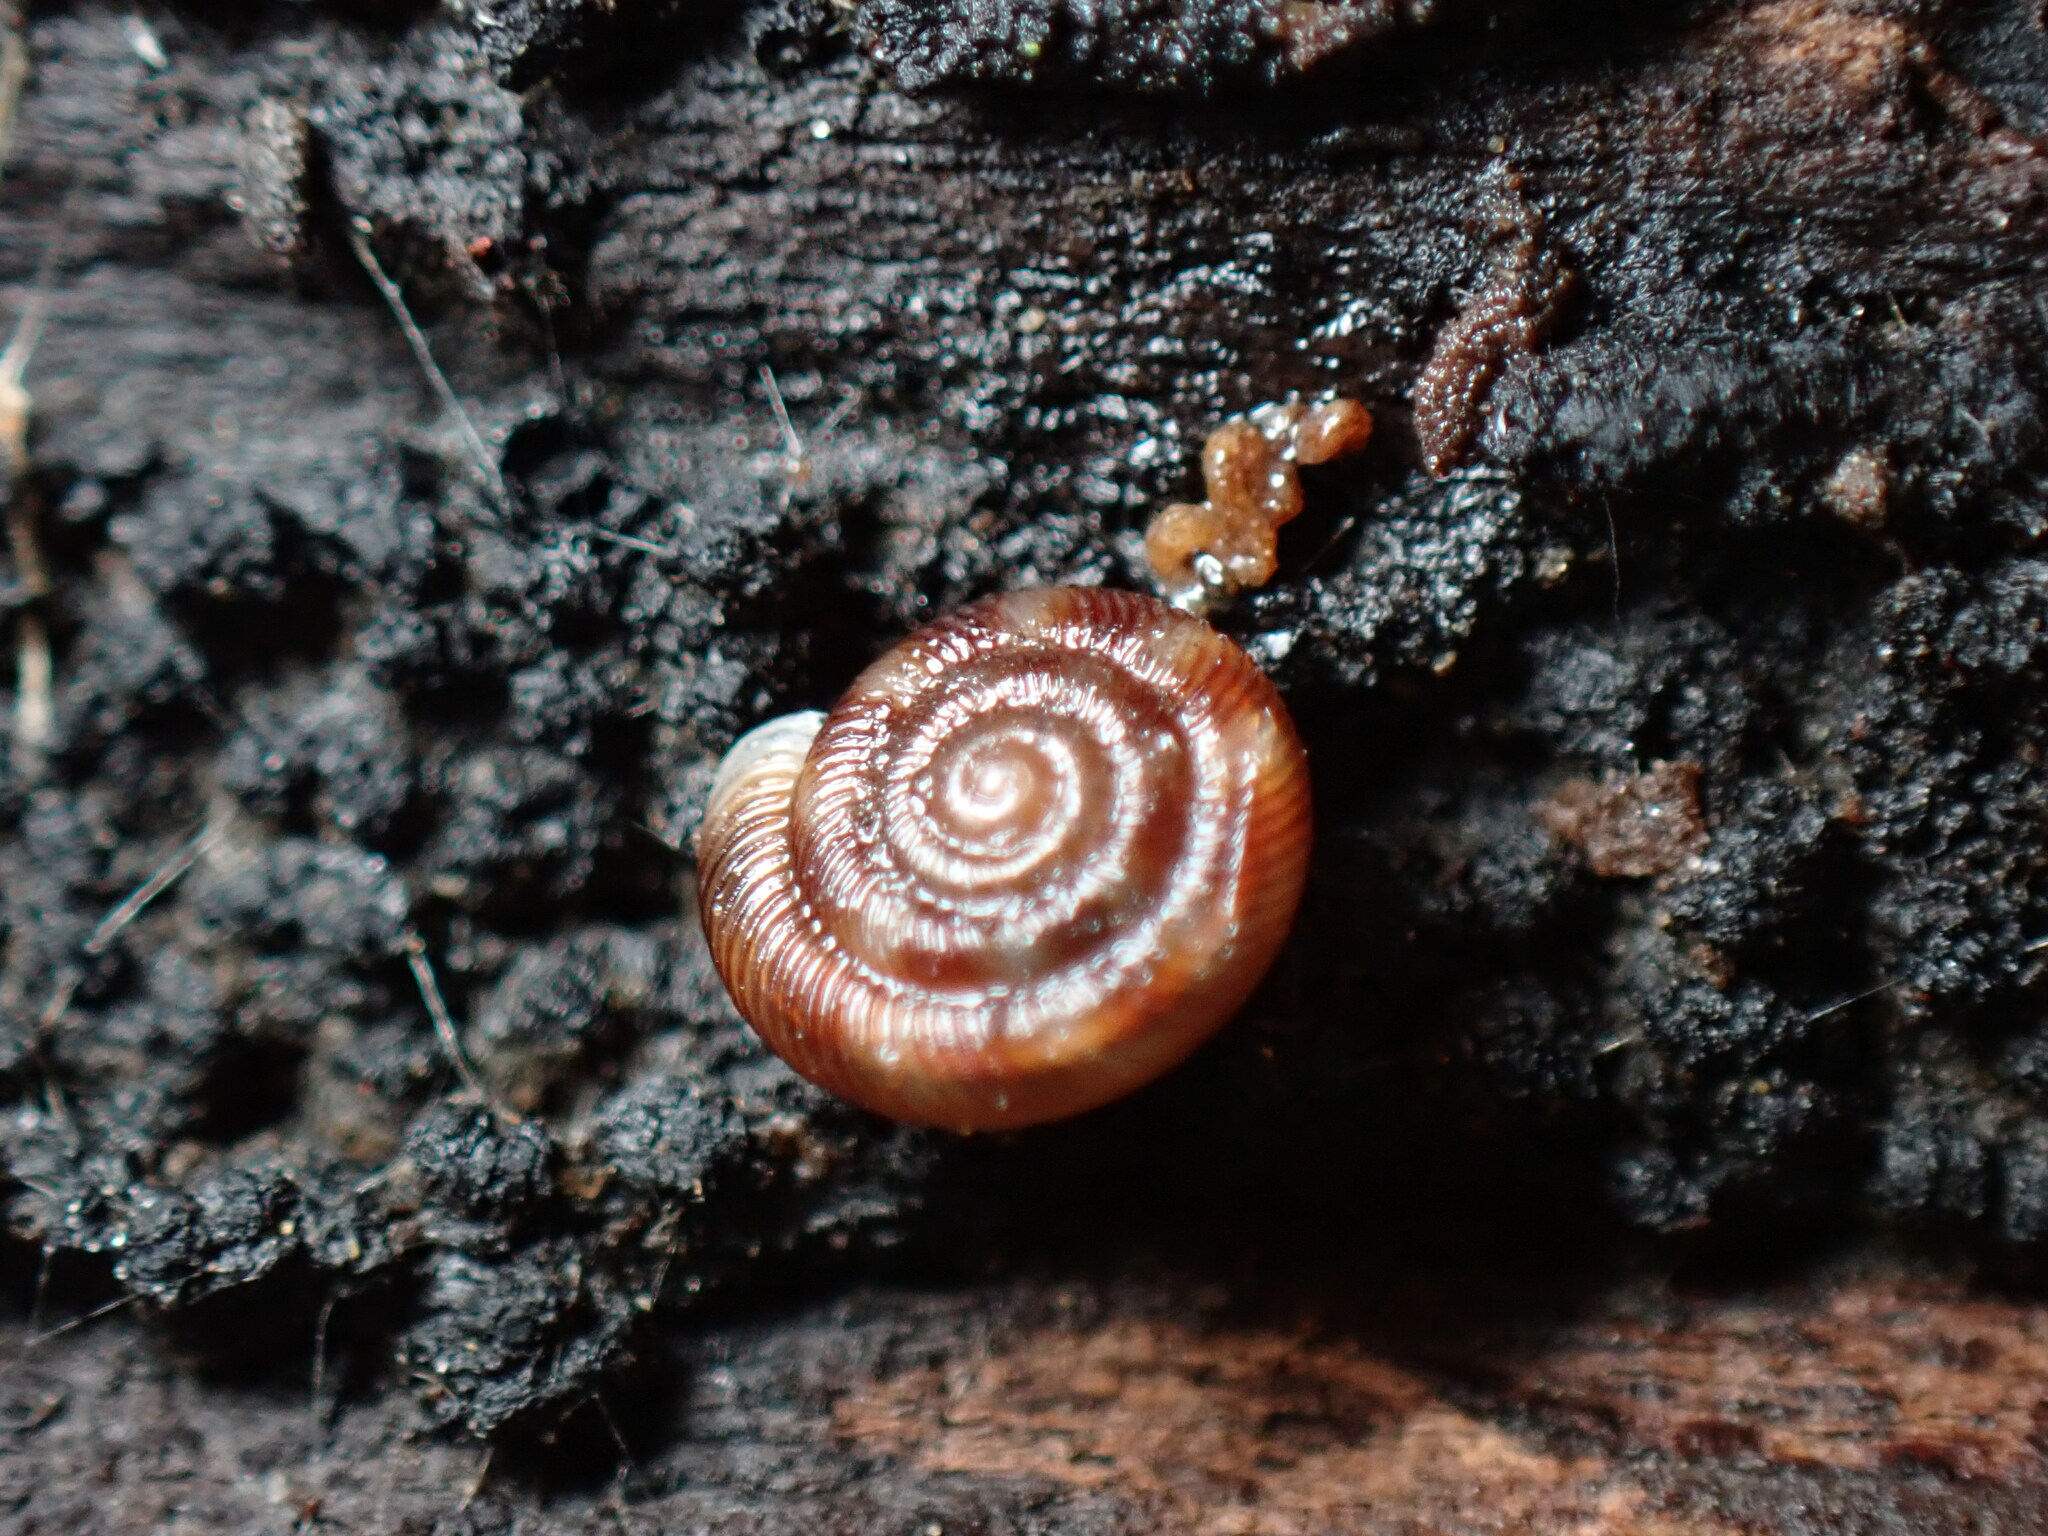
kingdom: Animalia
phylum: Mollusca
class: Gastropoda
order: Stylommatophora
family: Discidae
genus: Discus
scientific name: Discus rotundatus
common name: Rounded snail
